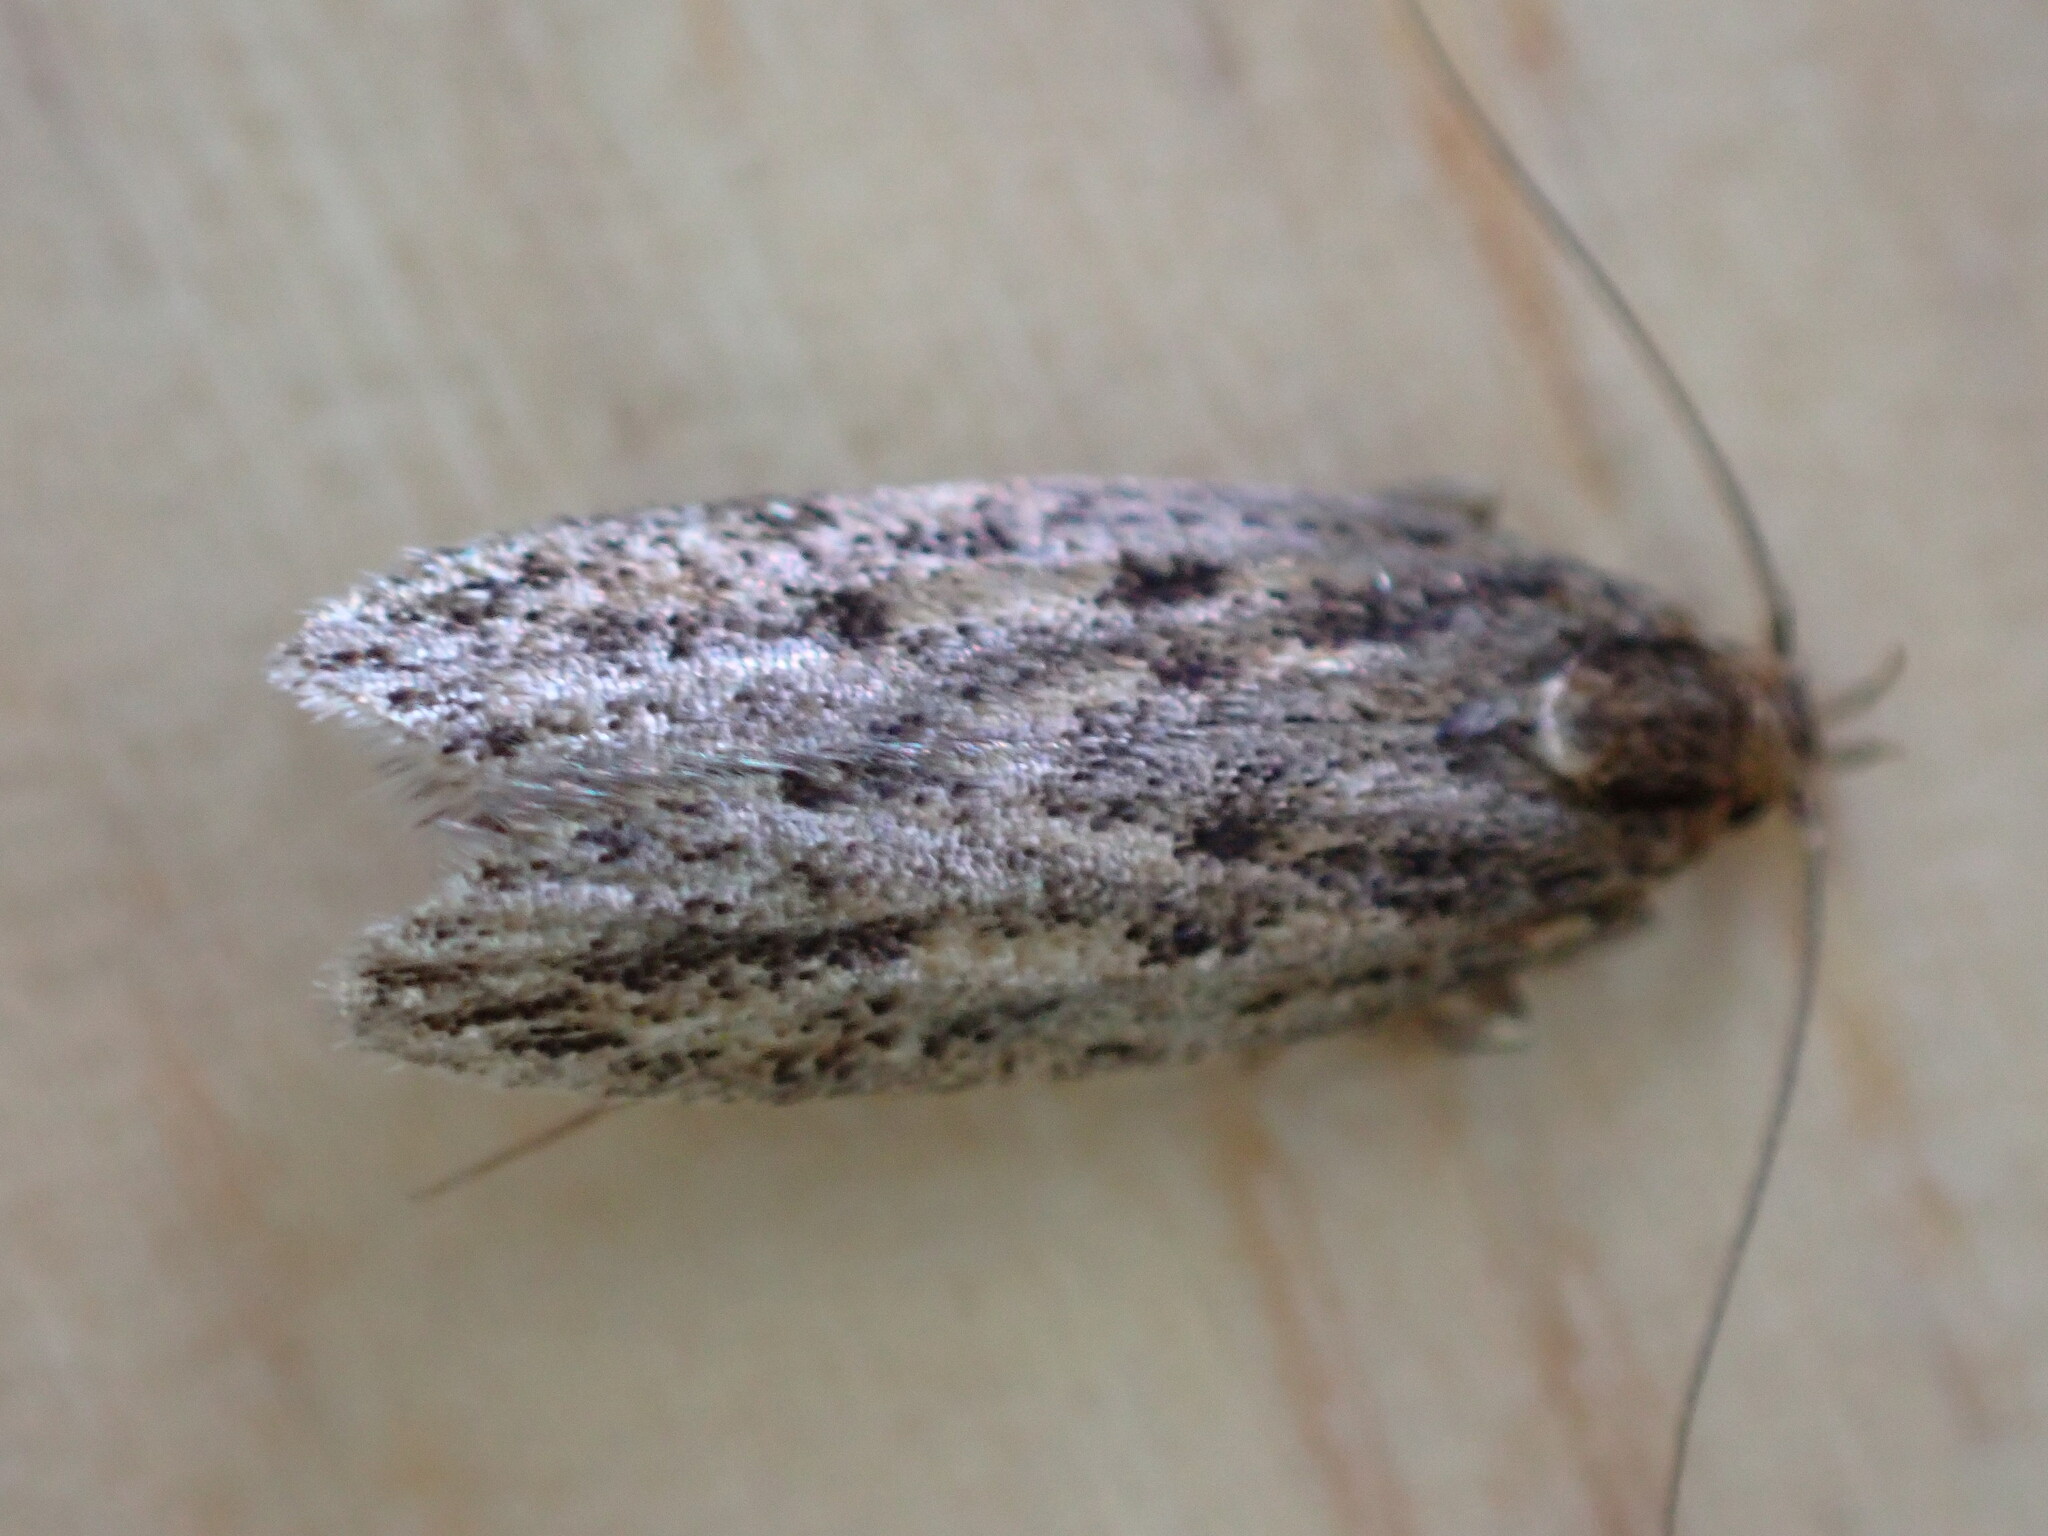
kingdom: Animalia
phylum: Arthropoda
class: Insecta
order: Lepidoptera
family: Oecophoridae
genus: Hofmannophila
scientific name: Hofmannophila pseudospretella
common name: Brown house moth
